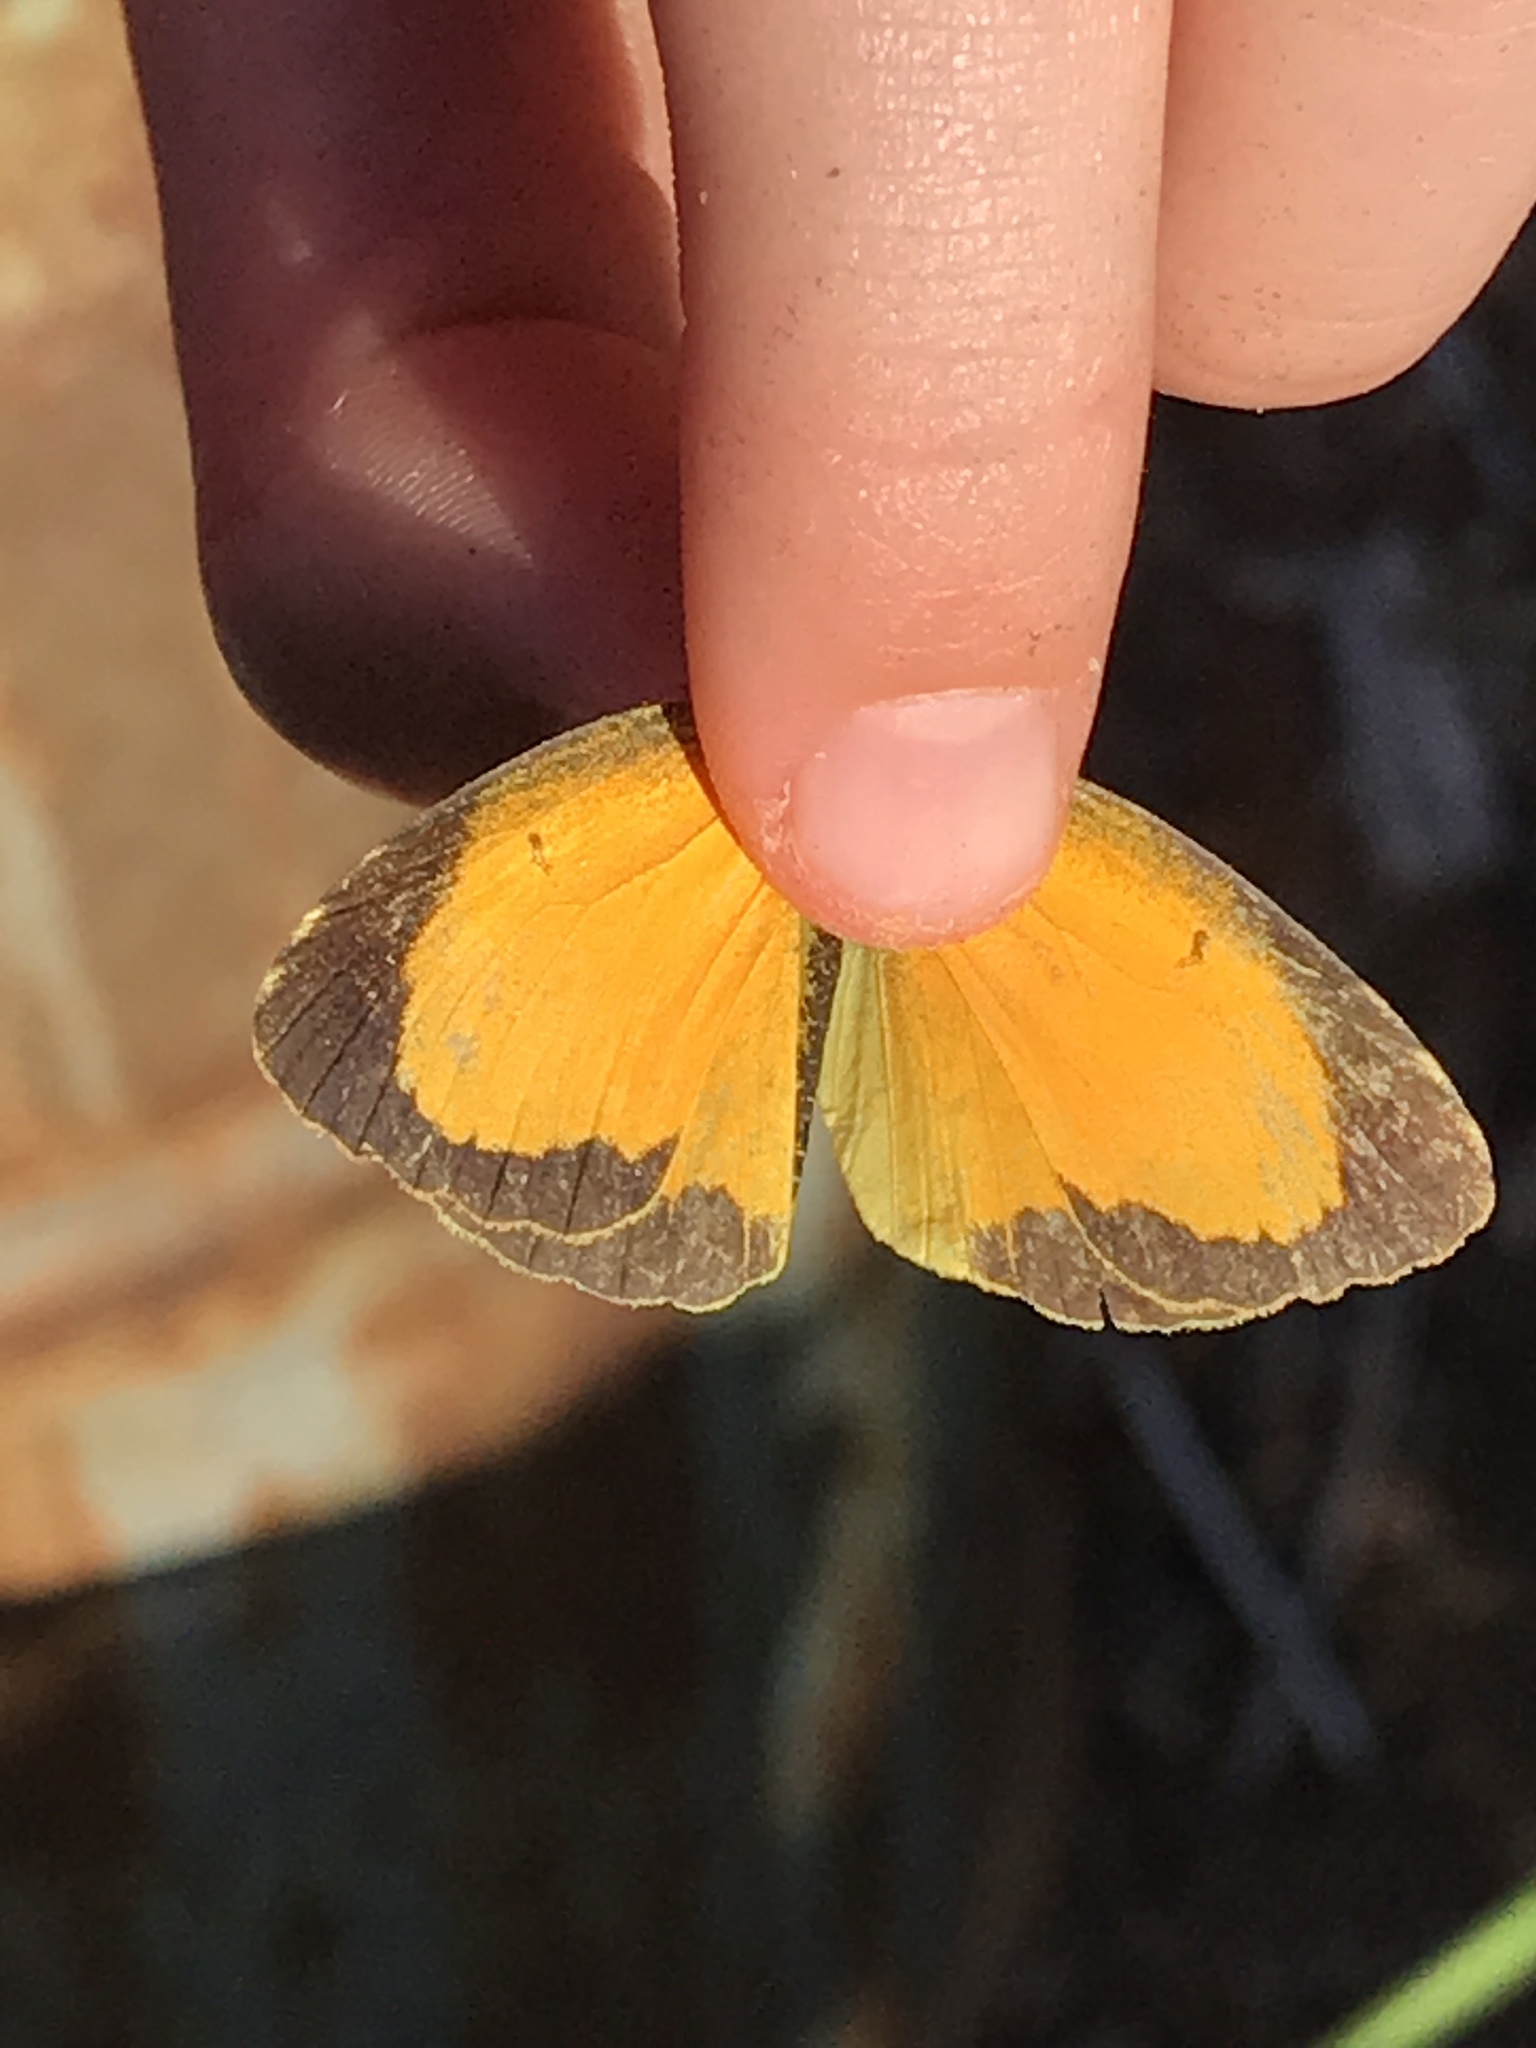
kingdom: Animalia
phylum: Arthropoda
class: Insecta
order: Lepidoptera
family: Pieridae
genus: Abaeis
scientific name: Abaeis nicippe
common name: Sleepy orange
